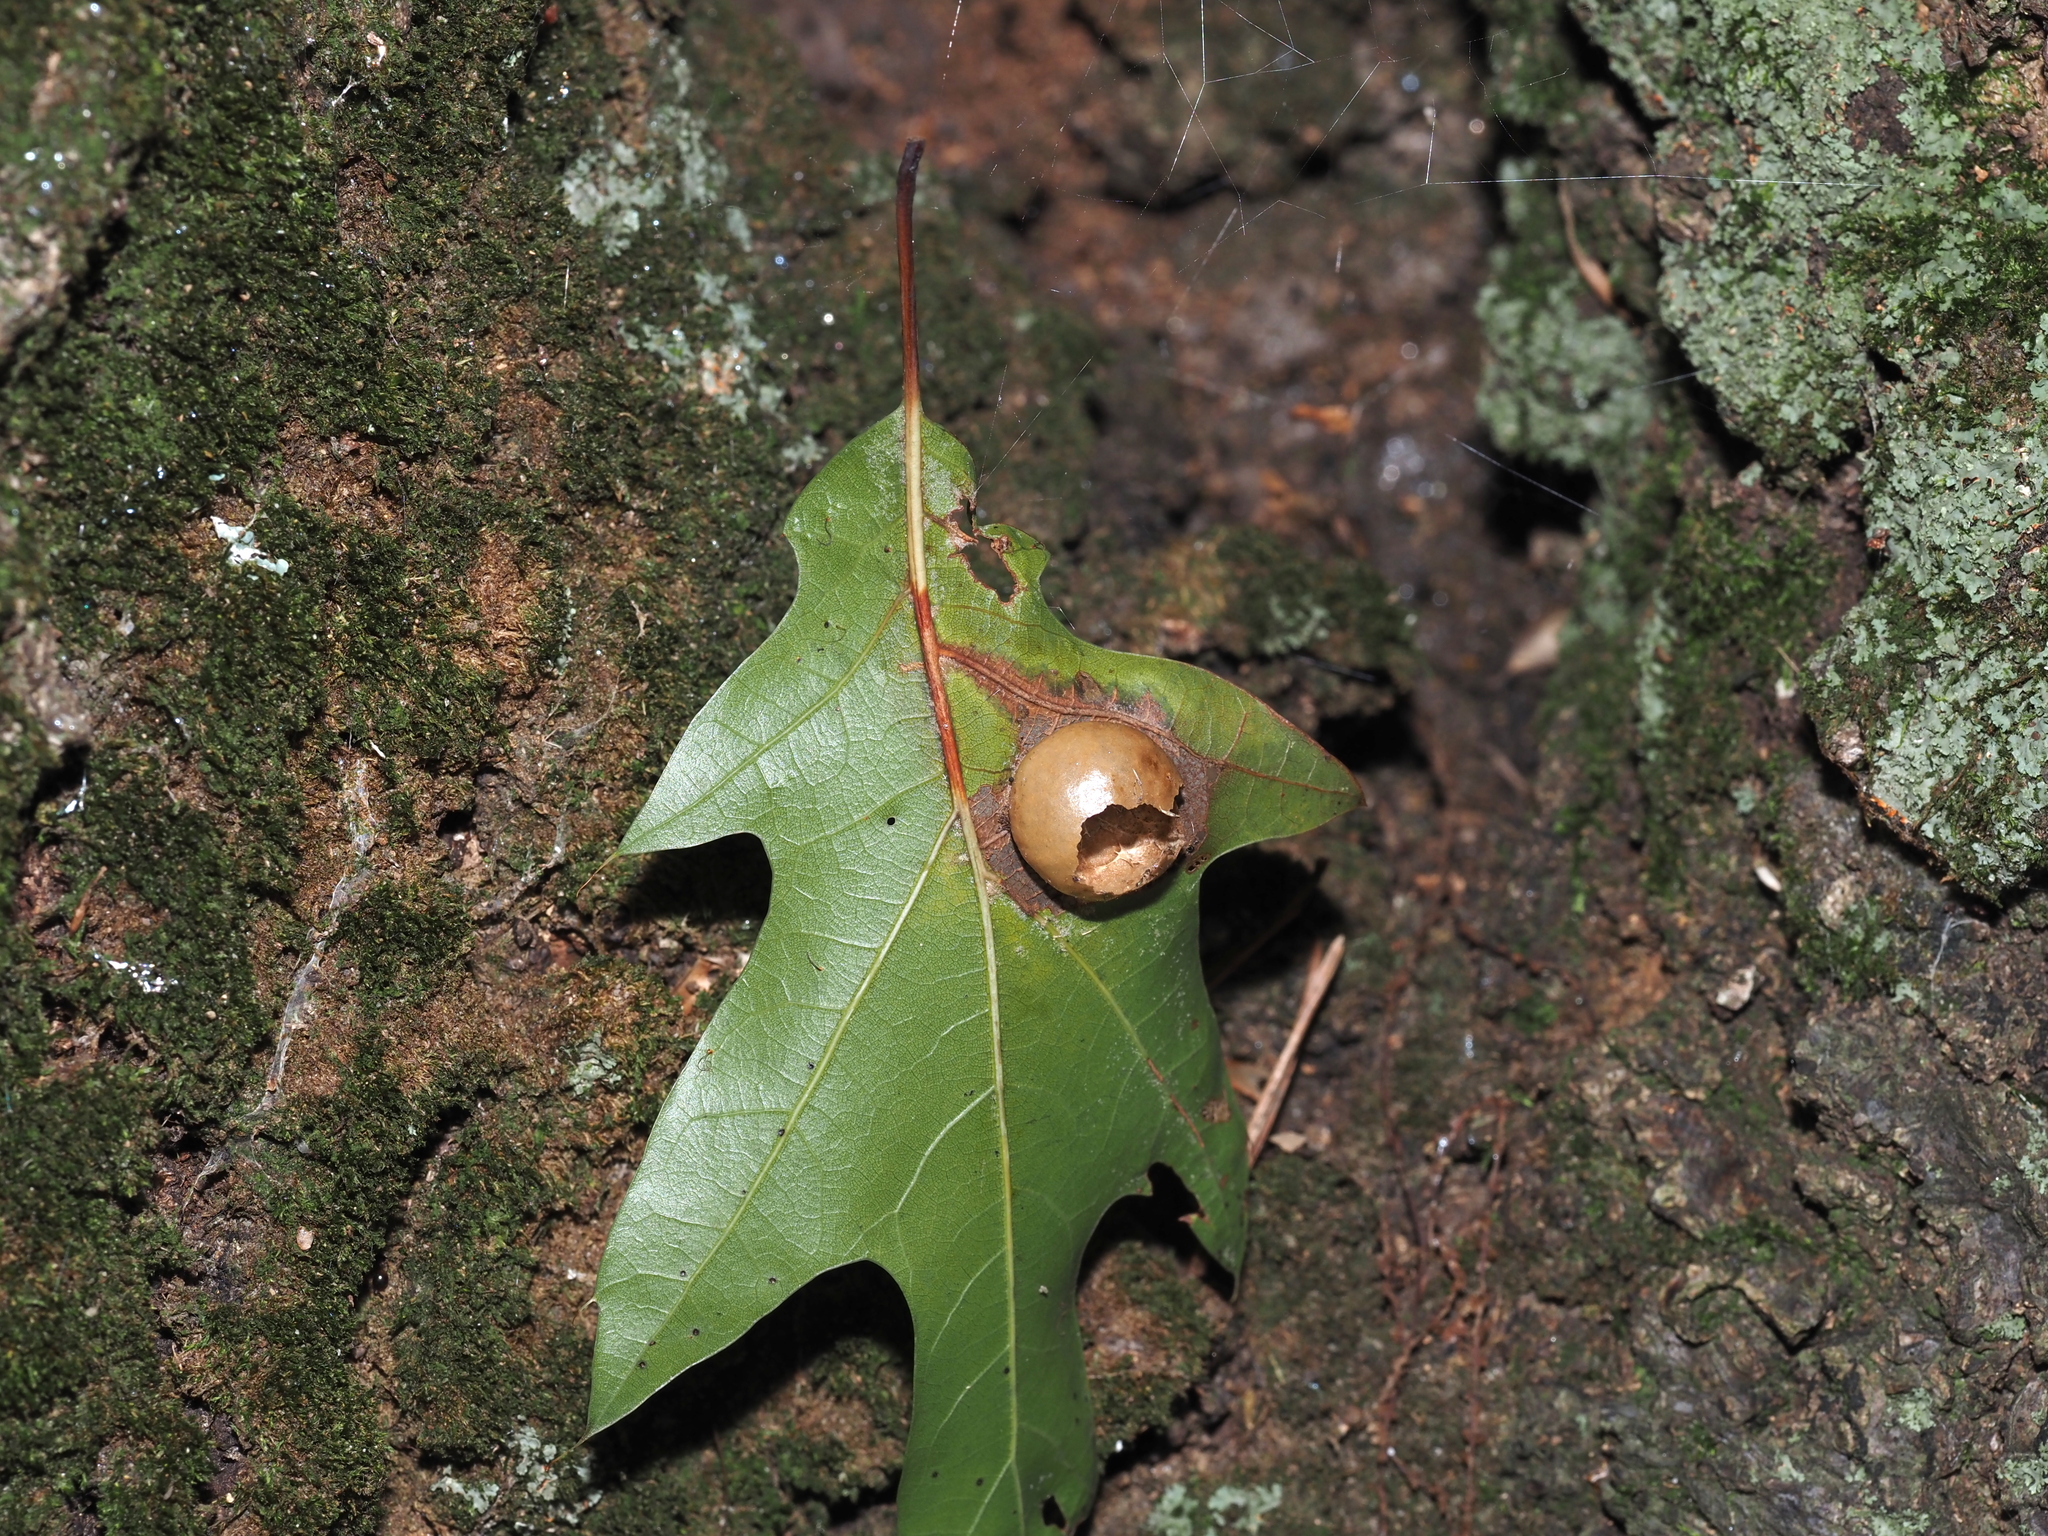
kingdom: Animalia
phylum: Arthropoda
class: Insecta
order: Hymenoptera
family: Cynipidae
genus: Amphibolips
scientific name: Amphibolips
